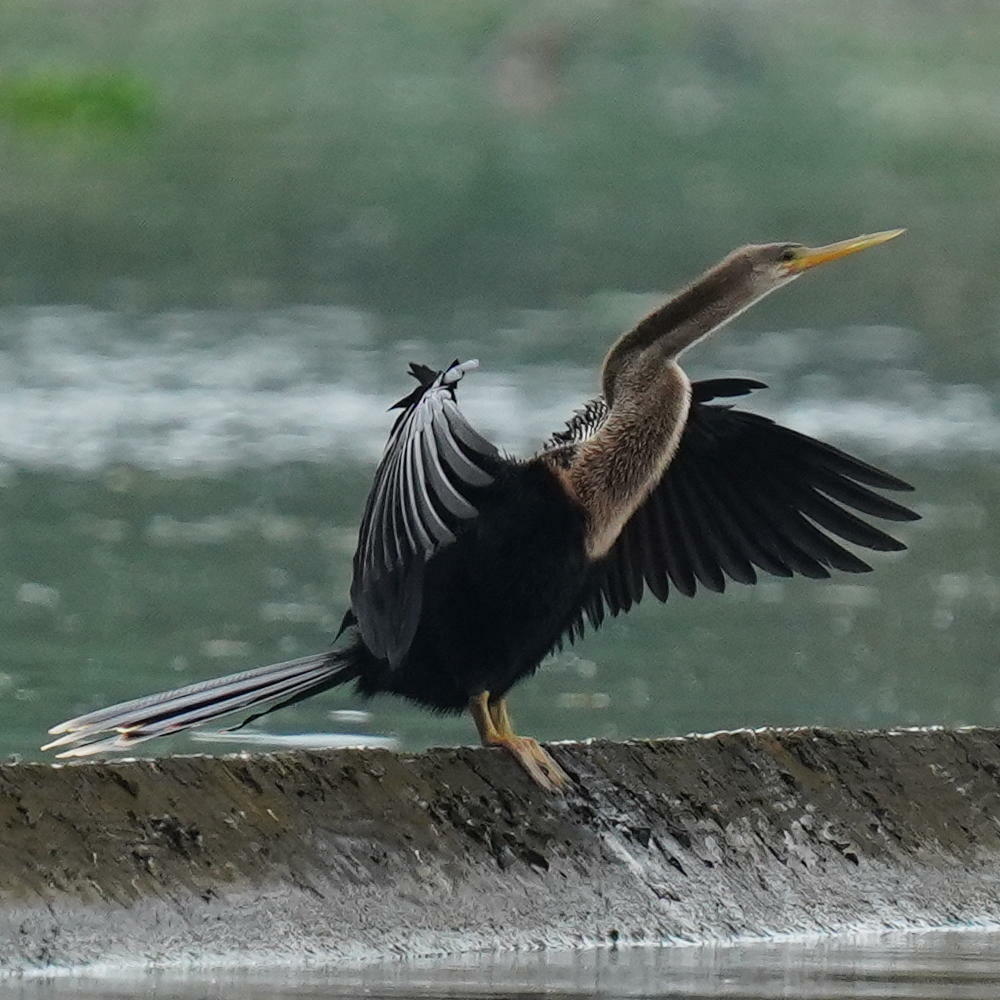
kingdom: Animalia
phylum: Chordata
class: Aves
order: Suliformes
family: Anhingidae
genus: Anhinga
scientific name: Anhinga anhinga
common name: Anhinga
